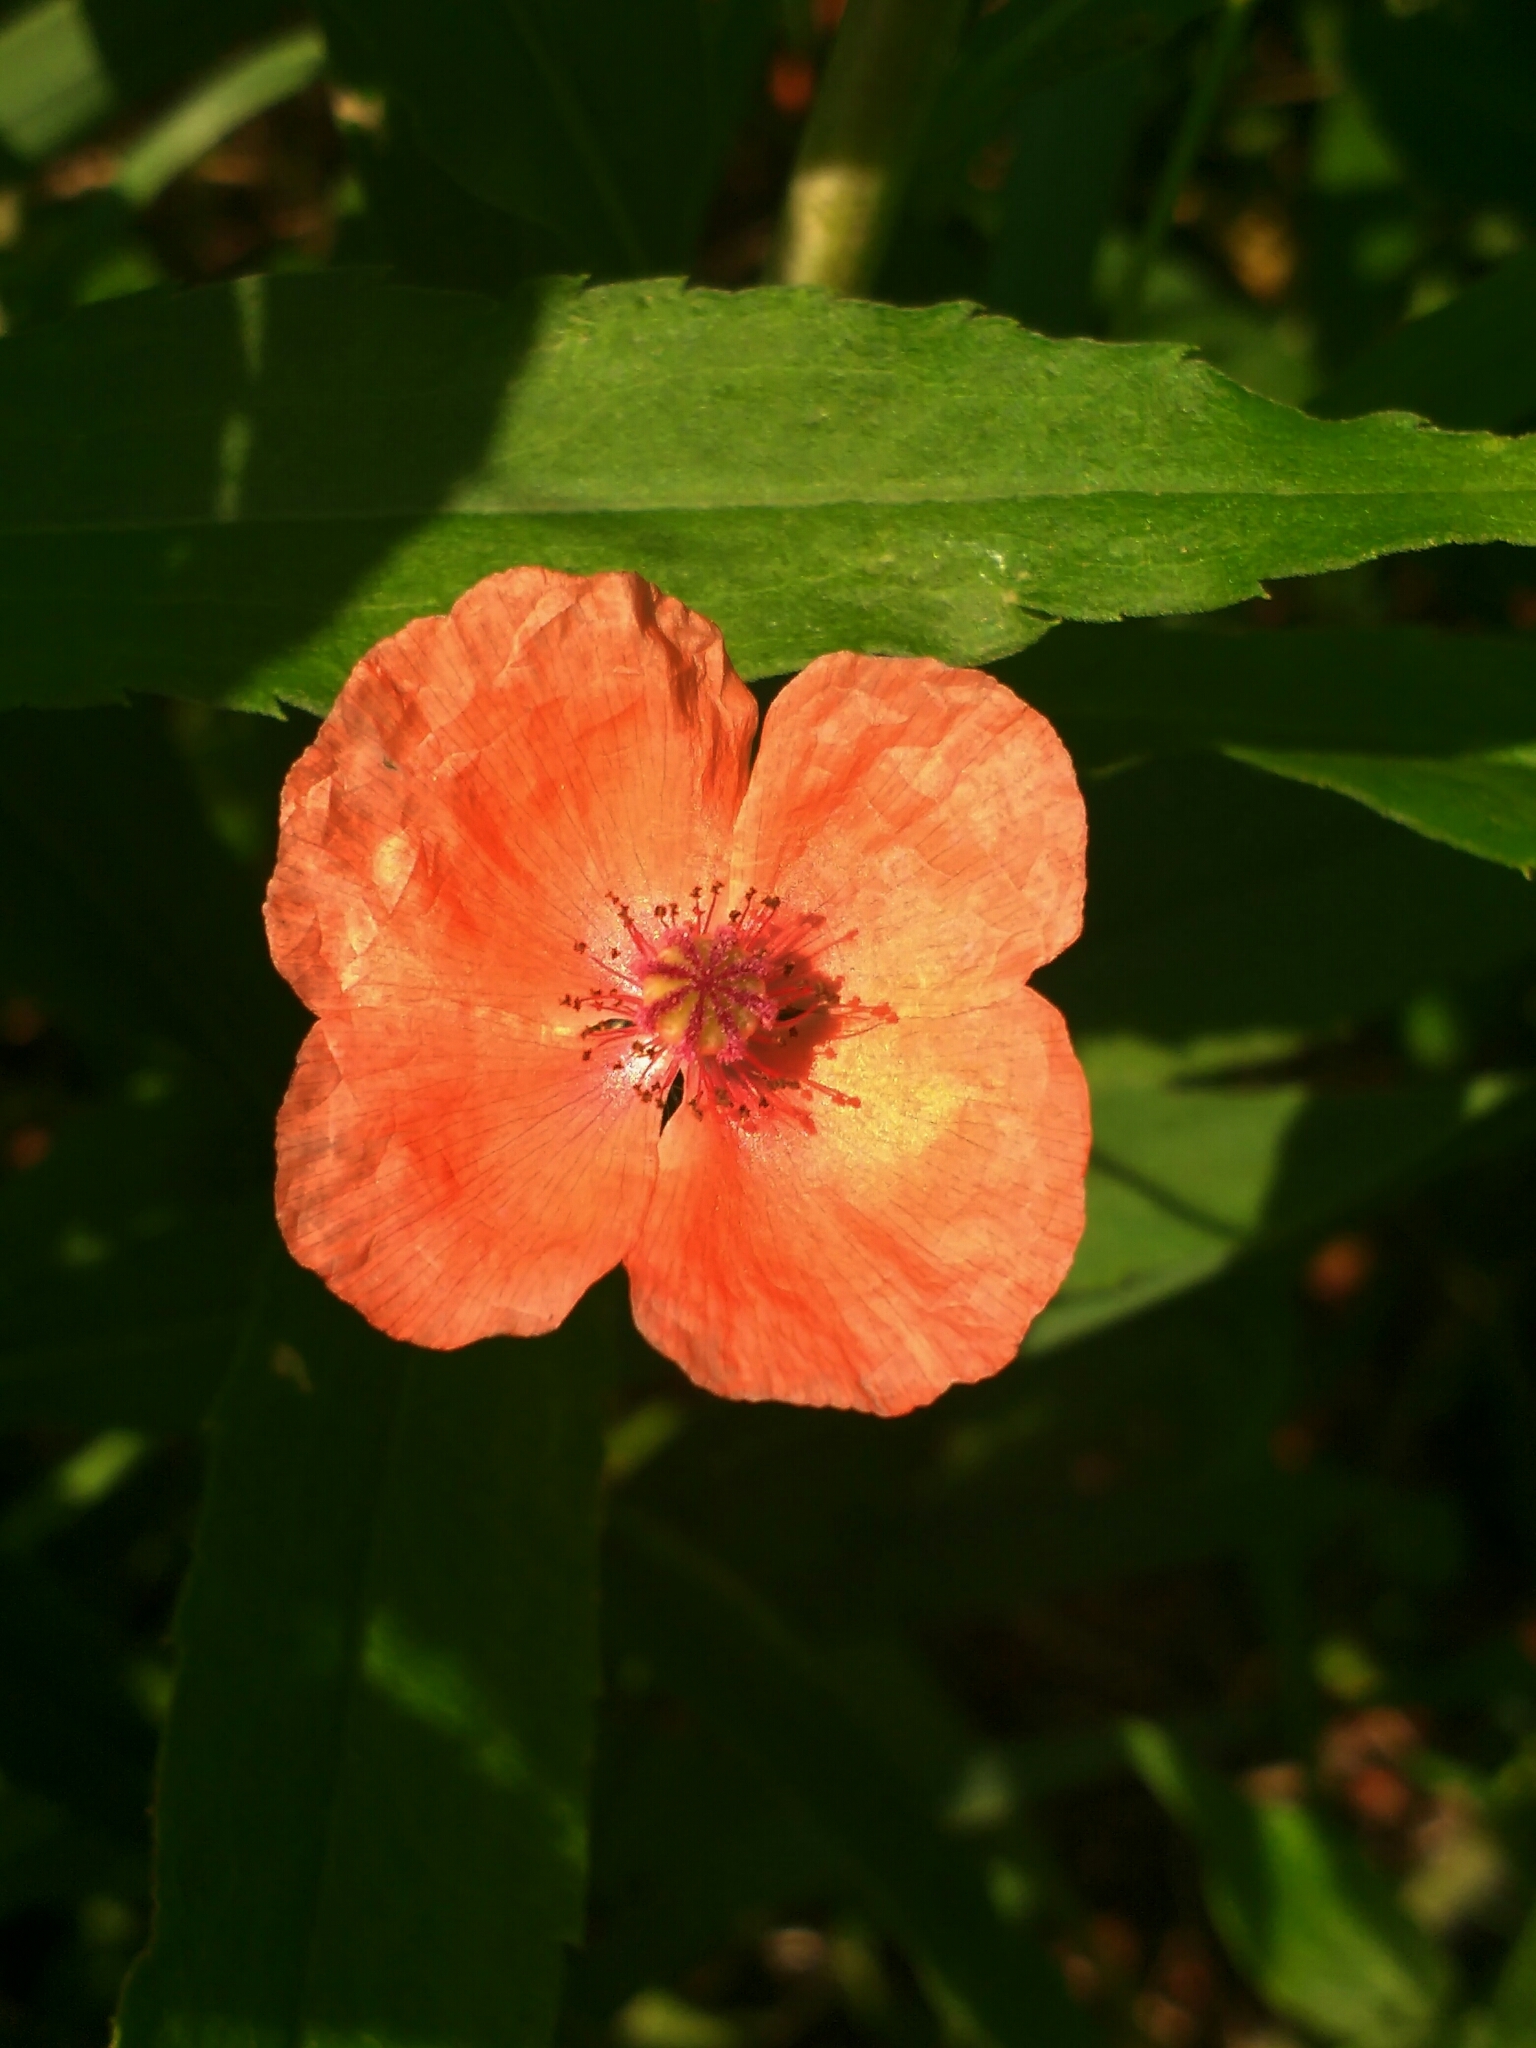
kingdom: Plantae
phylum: Tracheophyta
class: Magnoliopsida
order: Ranunculales
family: Papaveraceae
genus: Papaver
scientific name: Papaver dubium
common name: Long-headed poppy
